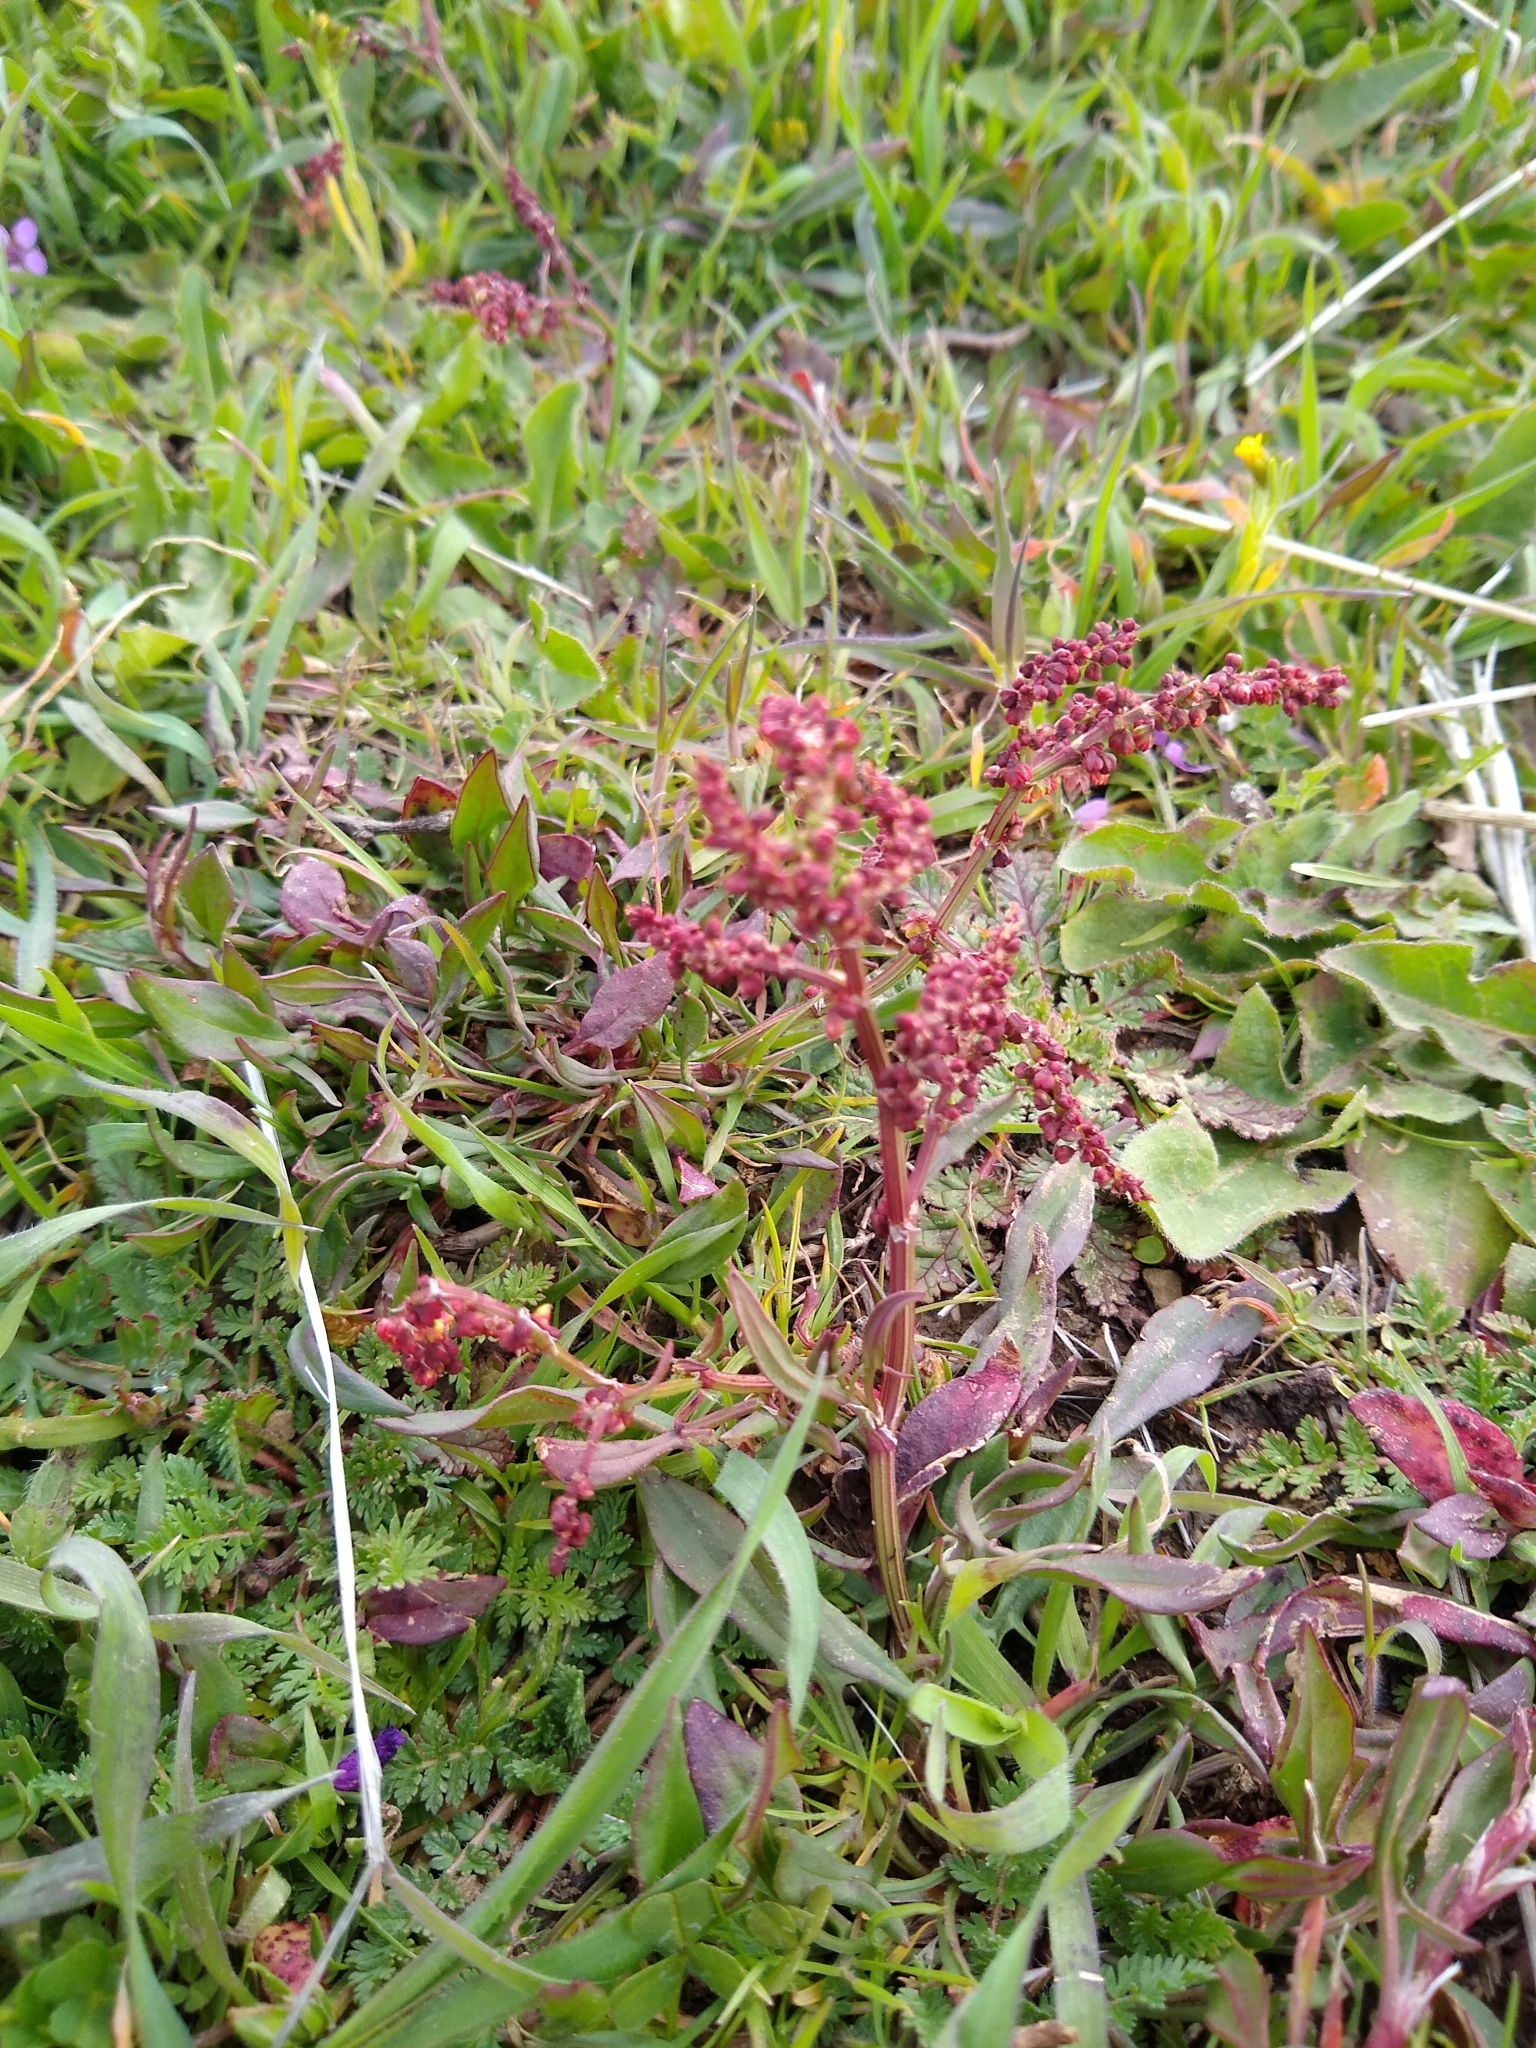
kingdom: Plantae
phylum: Tracheophyta
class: Magnoliopsida
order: Caryophyllales
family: Polygonaceae
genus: Rumex
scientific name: Rumex acetosella
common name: Common sheep sorrel
